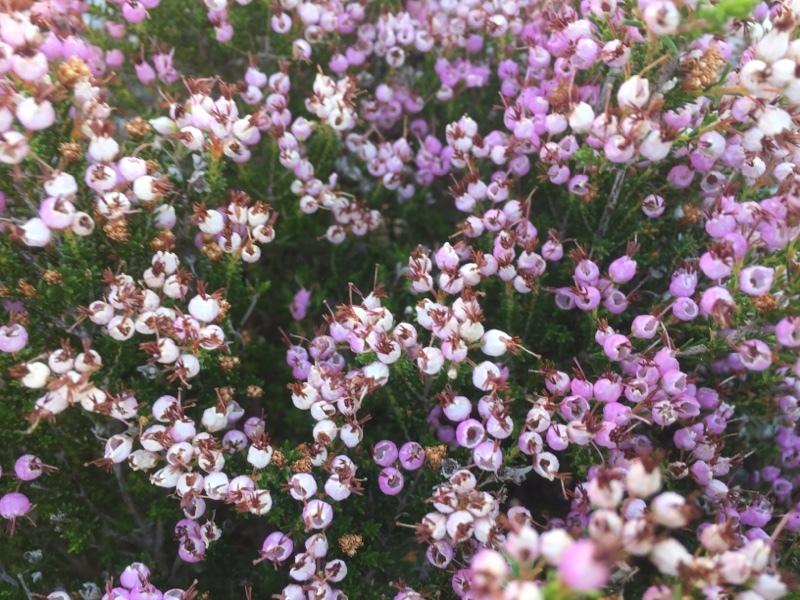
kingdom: Plantae
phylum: Tracheophyta
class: Magnoliopsida
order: Ericales
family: Ericaceae
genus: Erica
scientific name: Erica umbellata
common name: Dwarf spanish heath
